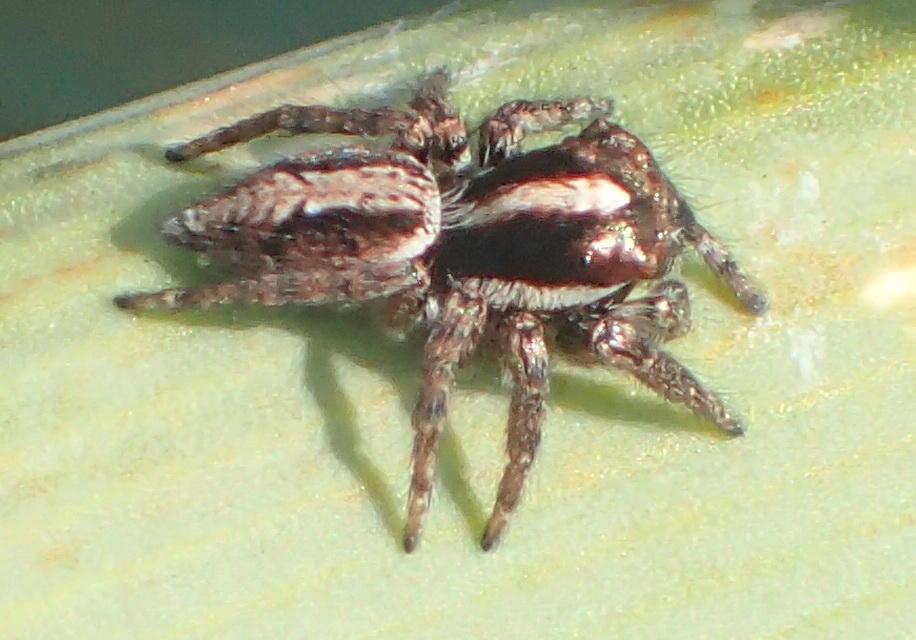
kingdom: Animalia
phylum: Arthropoda
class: Arachnida
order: Araneae
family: Salticidae
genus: Icius
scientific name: Icius insolidus
